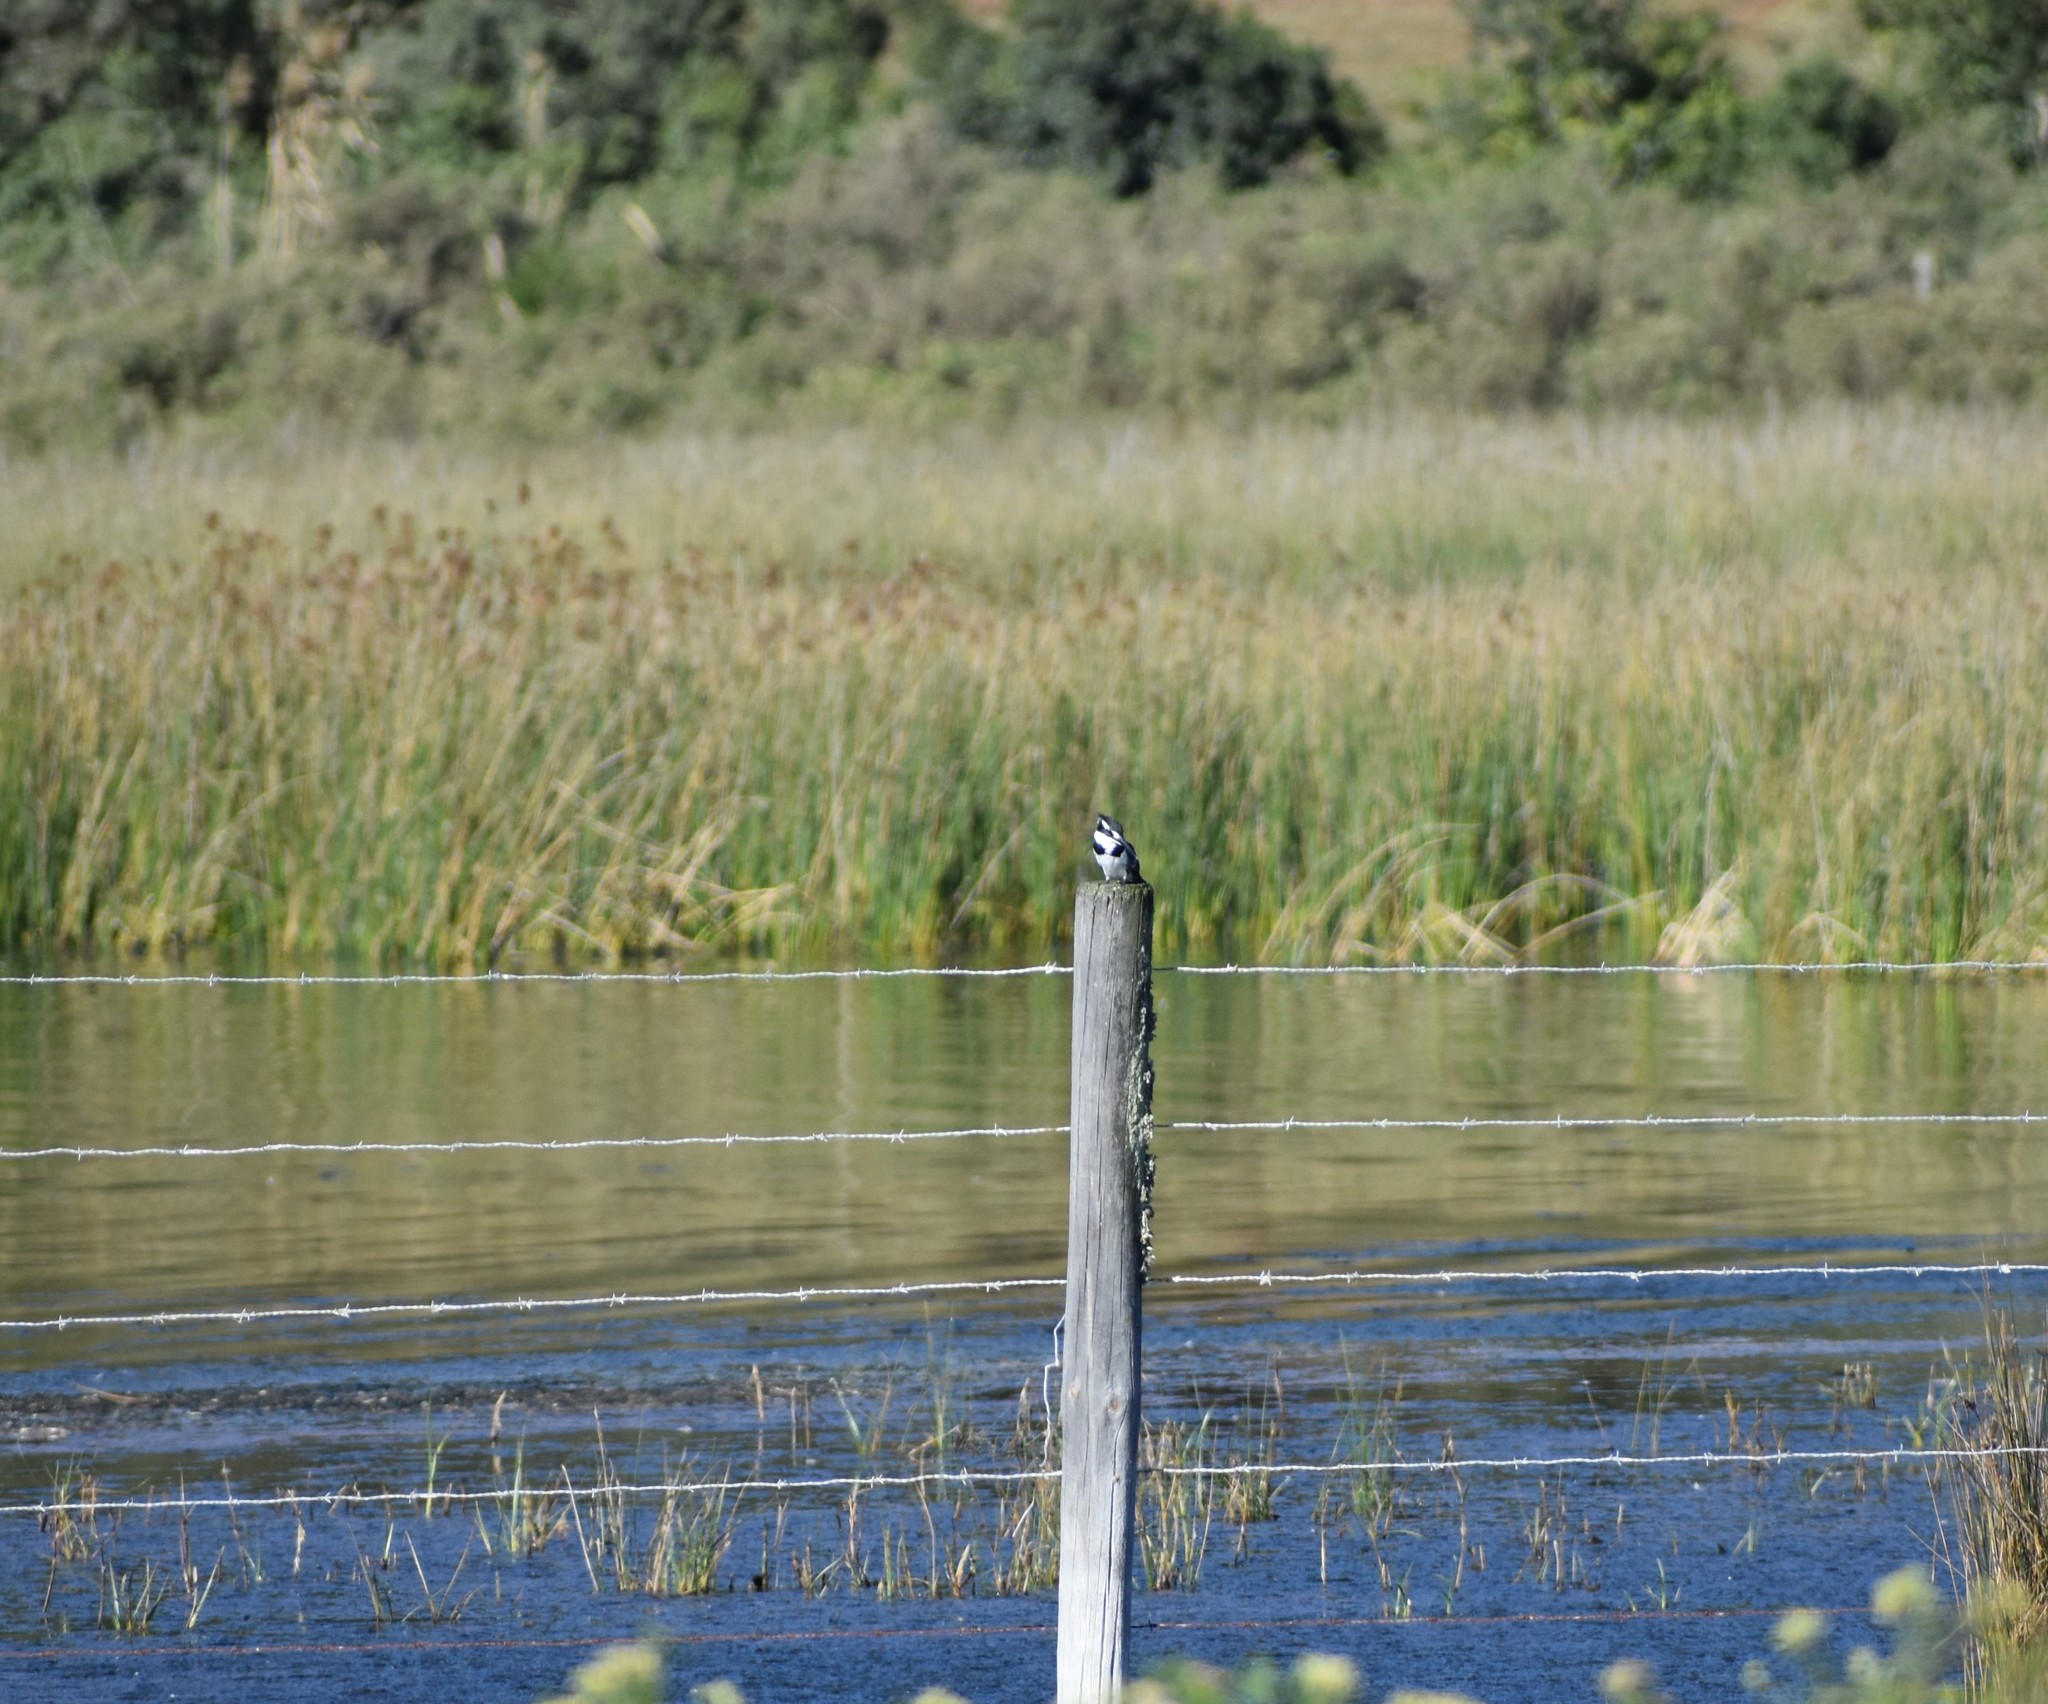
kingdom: Animalia
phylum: Chordata
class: Aves
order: Coraciiformes
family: Alcedinidae
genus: Ceryle
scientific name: Ceryle rudis
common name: Pied kingfisher
